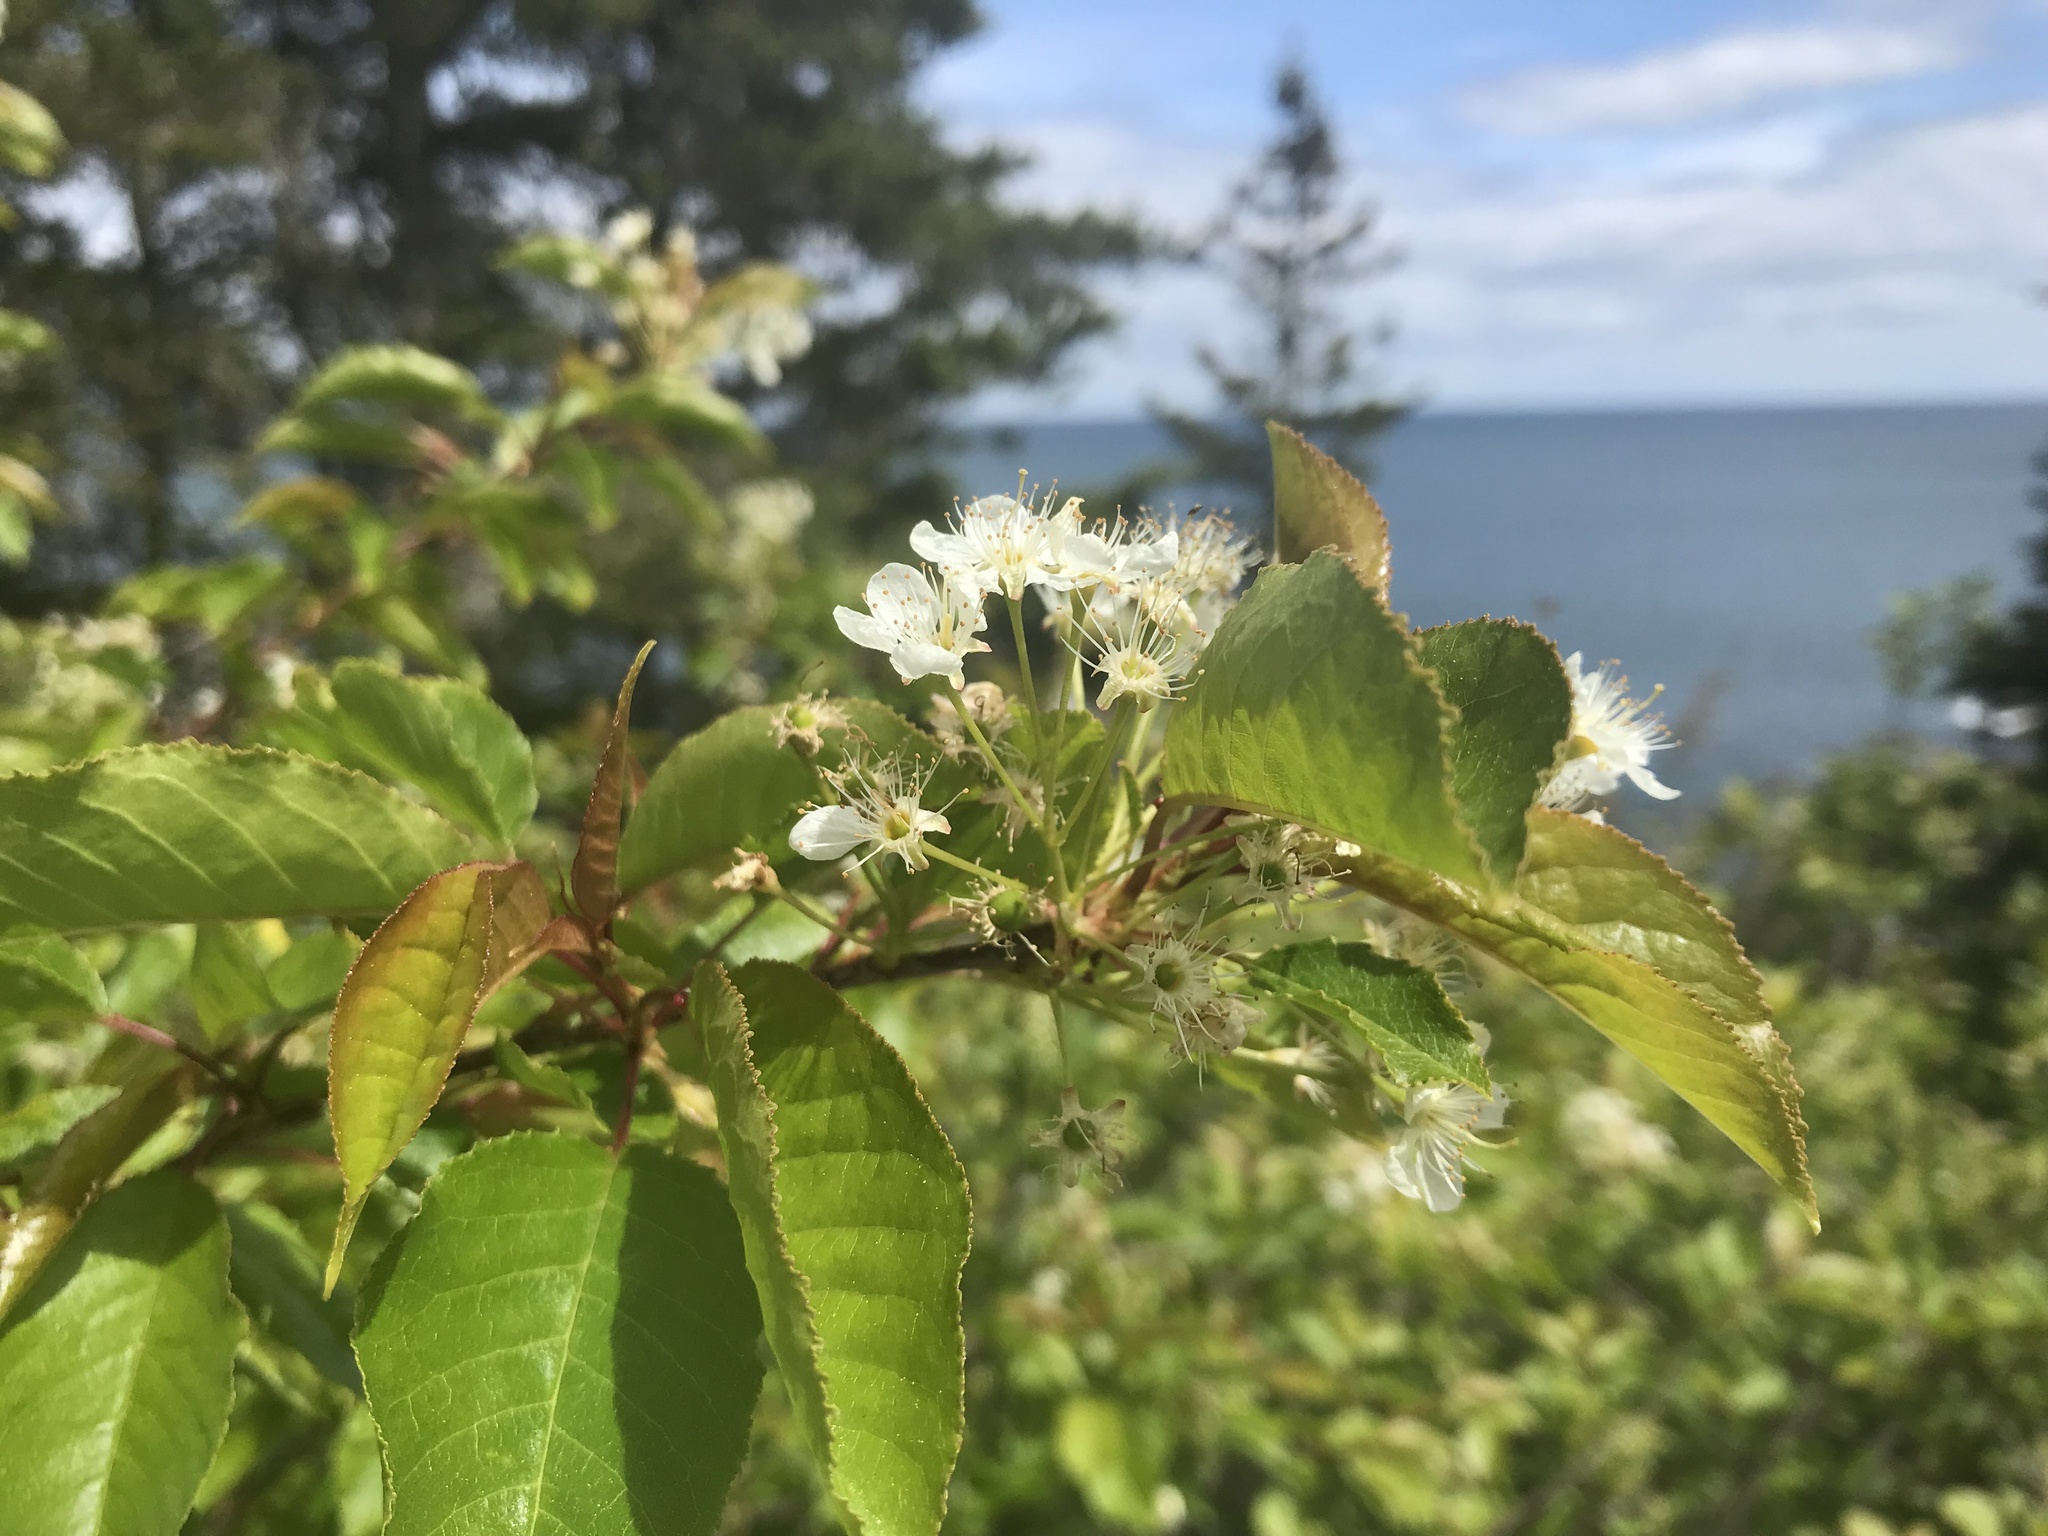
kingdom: Plantae
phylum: Tracheophyta
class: Magnoliopsida
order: Rosales
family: Rosaceae
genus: Prunus
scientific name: Prunus pensylvanica
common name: Pin cherry
